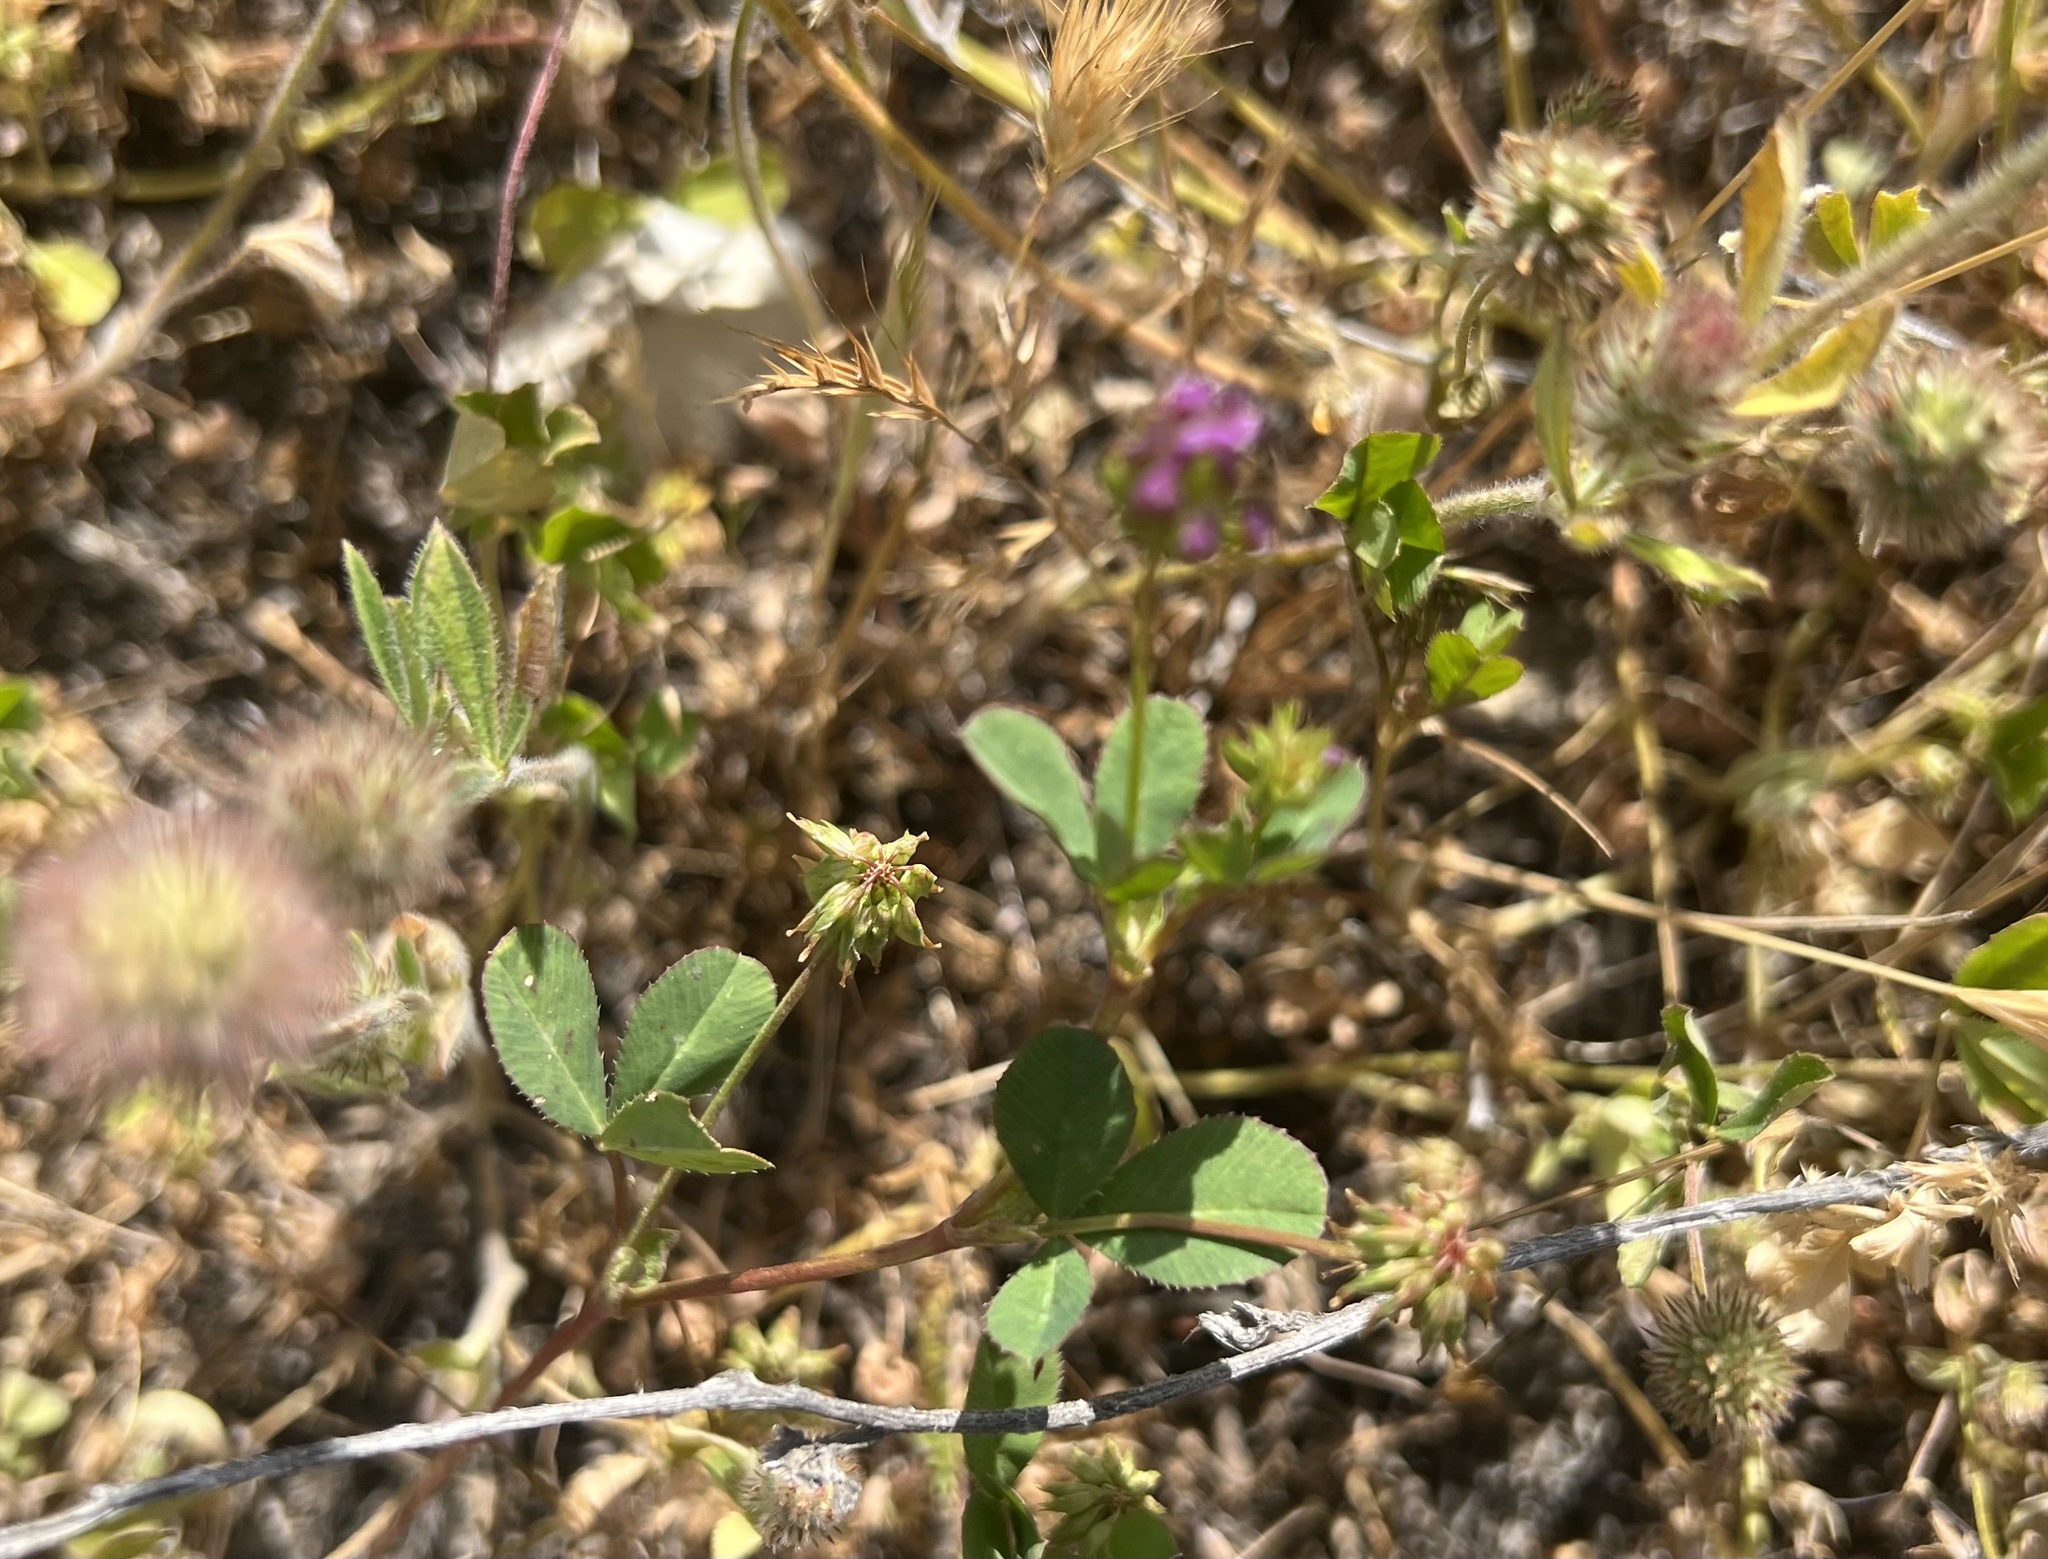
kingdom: Plantae
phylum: Tracheophyta
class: Magnoliopsida
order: Fabales
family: Fabaceae
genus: Trifolium
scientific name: Trifolium albopurpureum
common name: Rancheria clover
